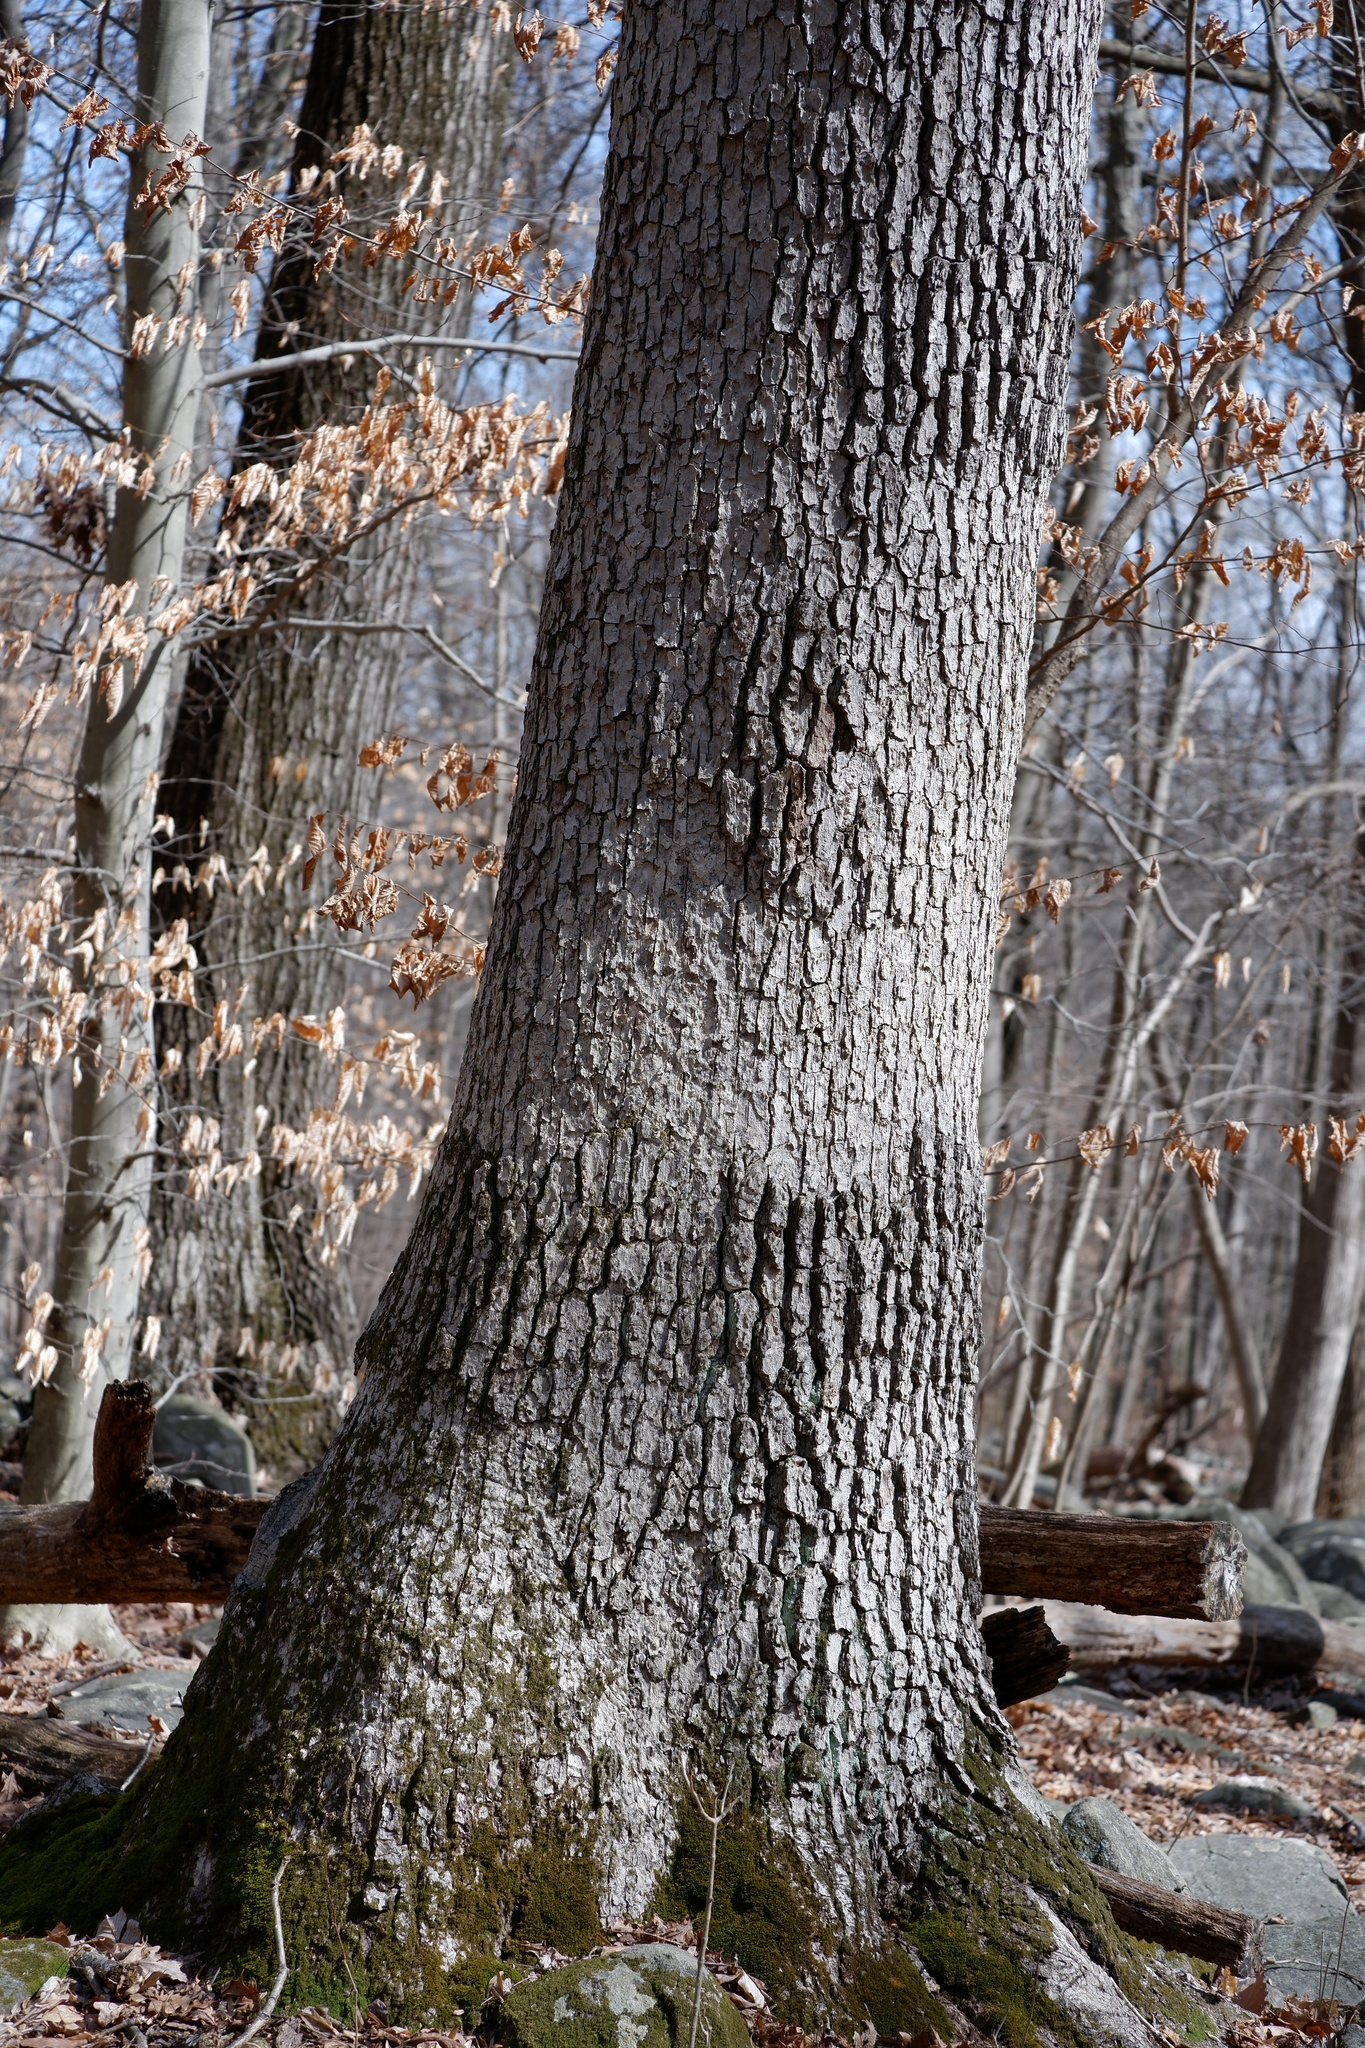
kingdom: Fungi
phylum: Basidiomycota
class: Agaricomycetes
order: Russulales
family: Stereaceae
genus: Acanthophysium
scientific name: Acanthophysium oakesii
